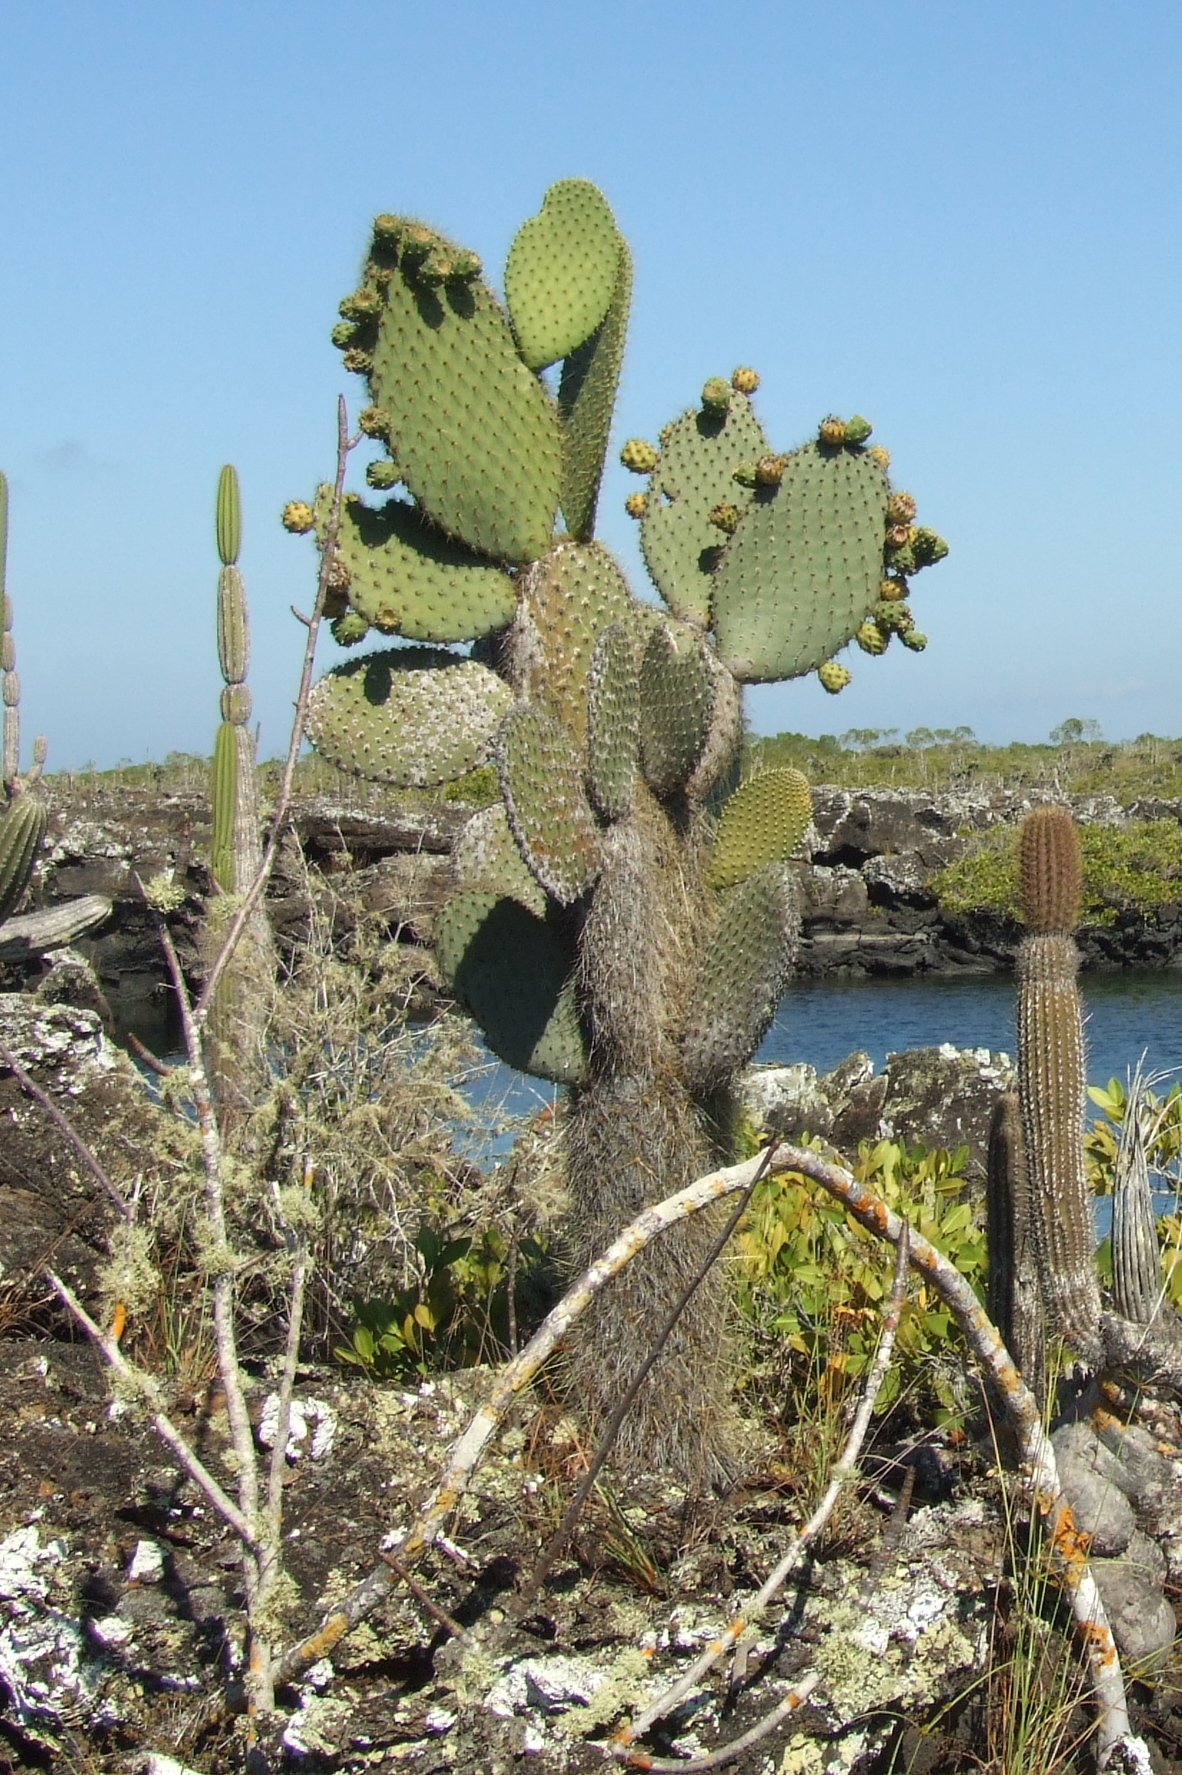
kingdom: Plantae
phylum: Tracheophyta
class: Magnoliopsida
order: Caryophyllales
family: Cactaceae
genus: Opuntia
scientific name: Opuntia galapageia
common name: Galápagos prickly pear
